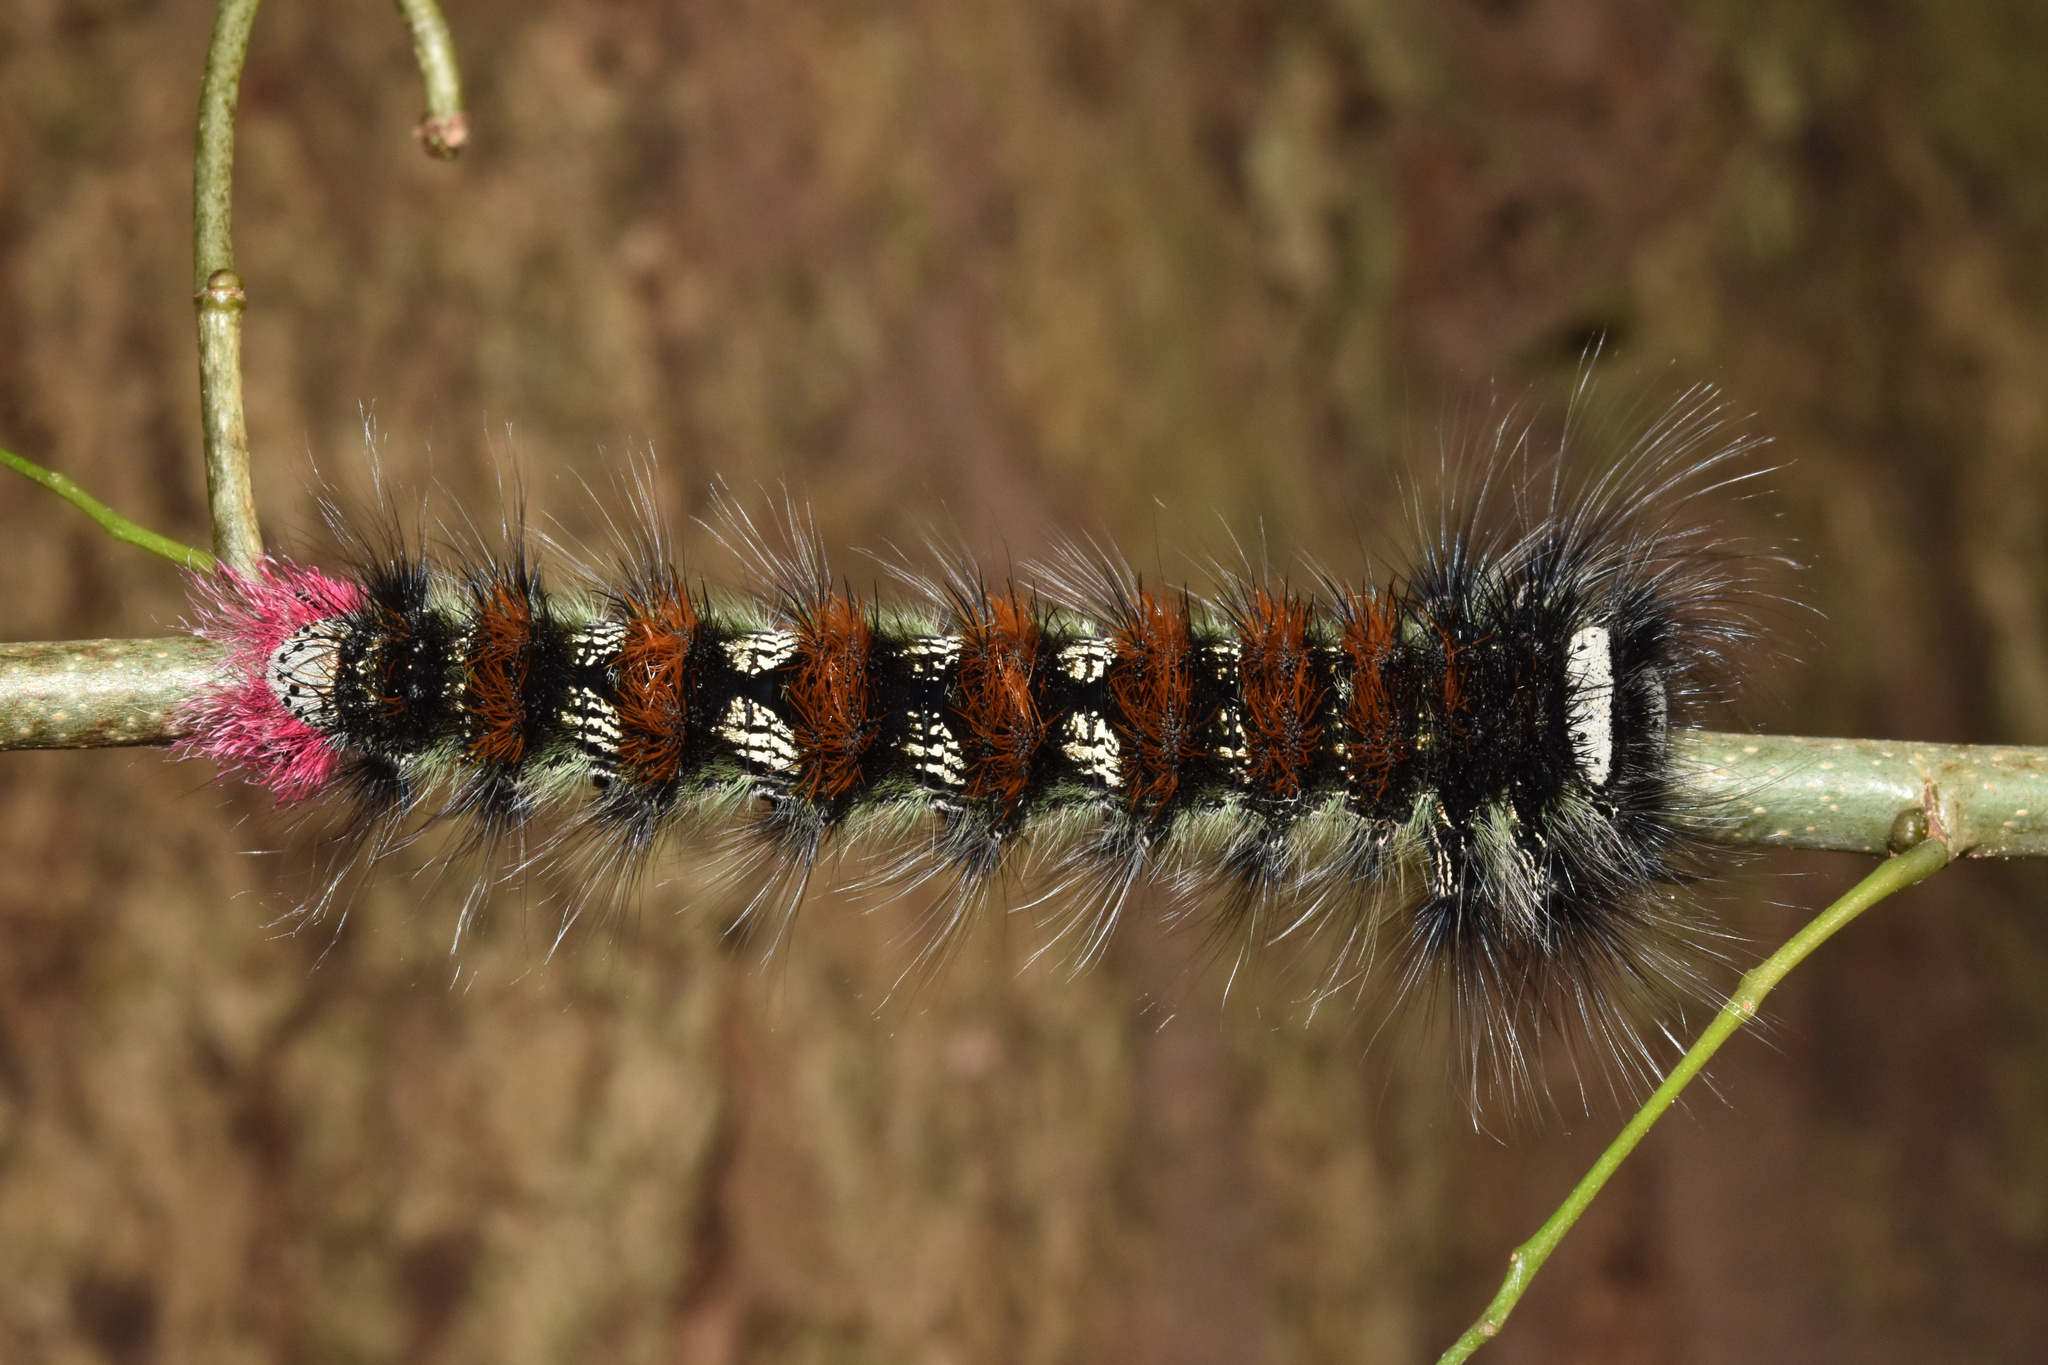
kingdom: Animalia
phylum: Arthropoda
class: Insecta
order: Lepidoptera
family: Lasiocampidae
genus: Catalebeda
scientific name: Catalebeda cuneilinea
